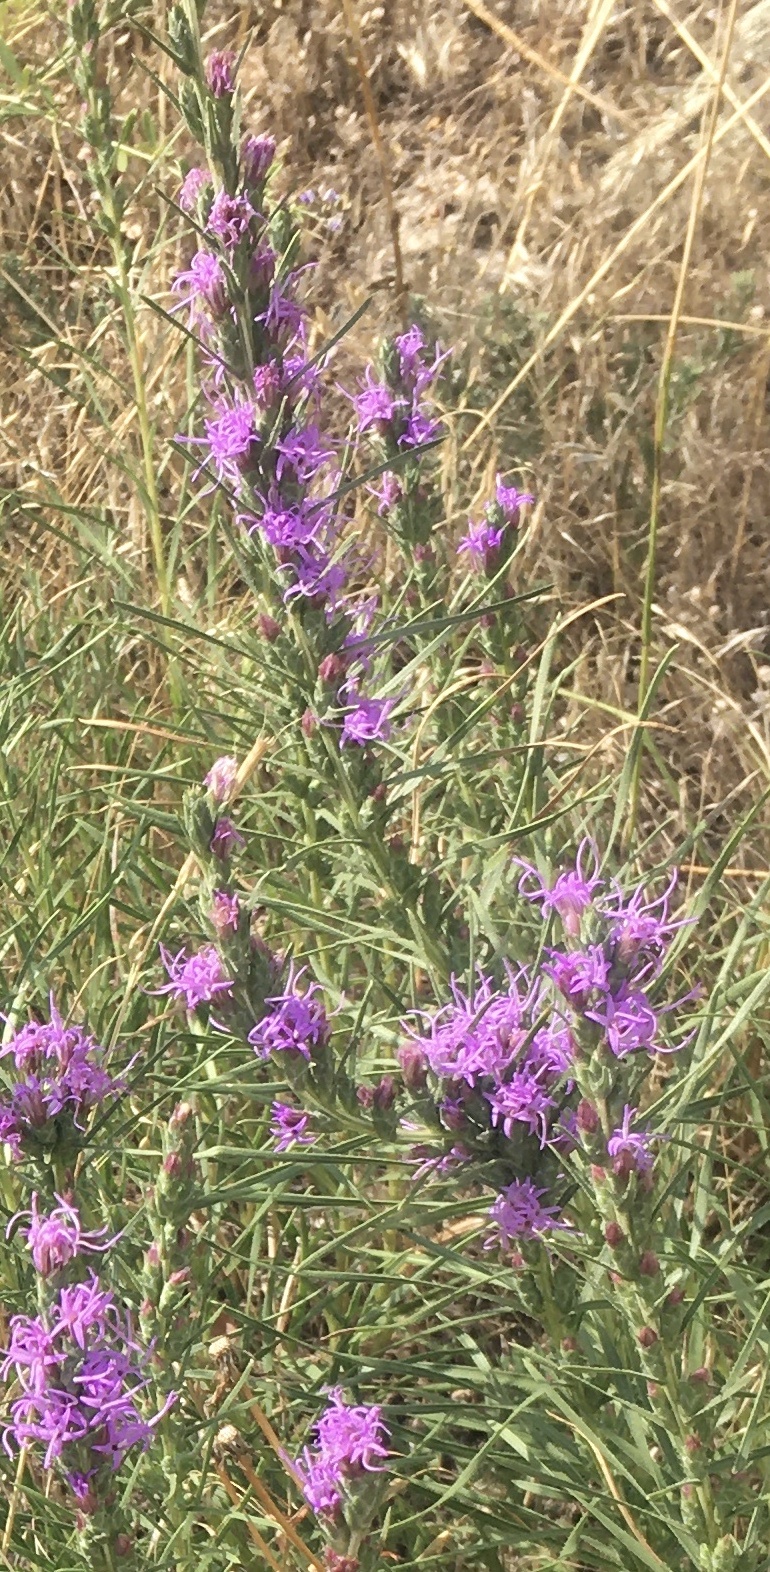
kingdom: Plantae
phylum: Tracheophyta
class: Magnoliopsida
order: Asterales
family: Asteraceae
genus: Liatris
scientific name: Liatris punctata
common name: Dotted gayfeather
